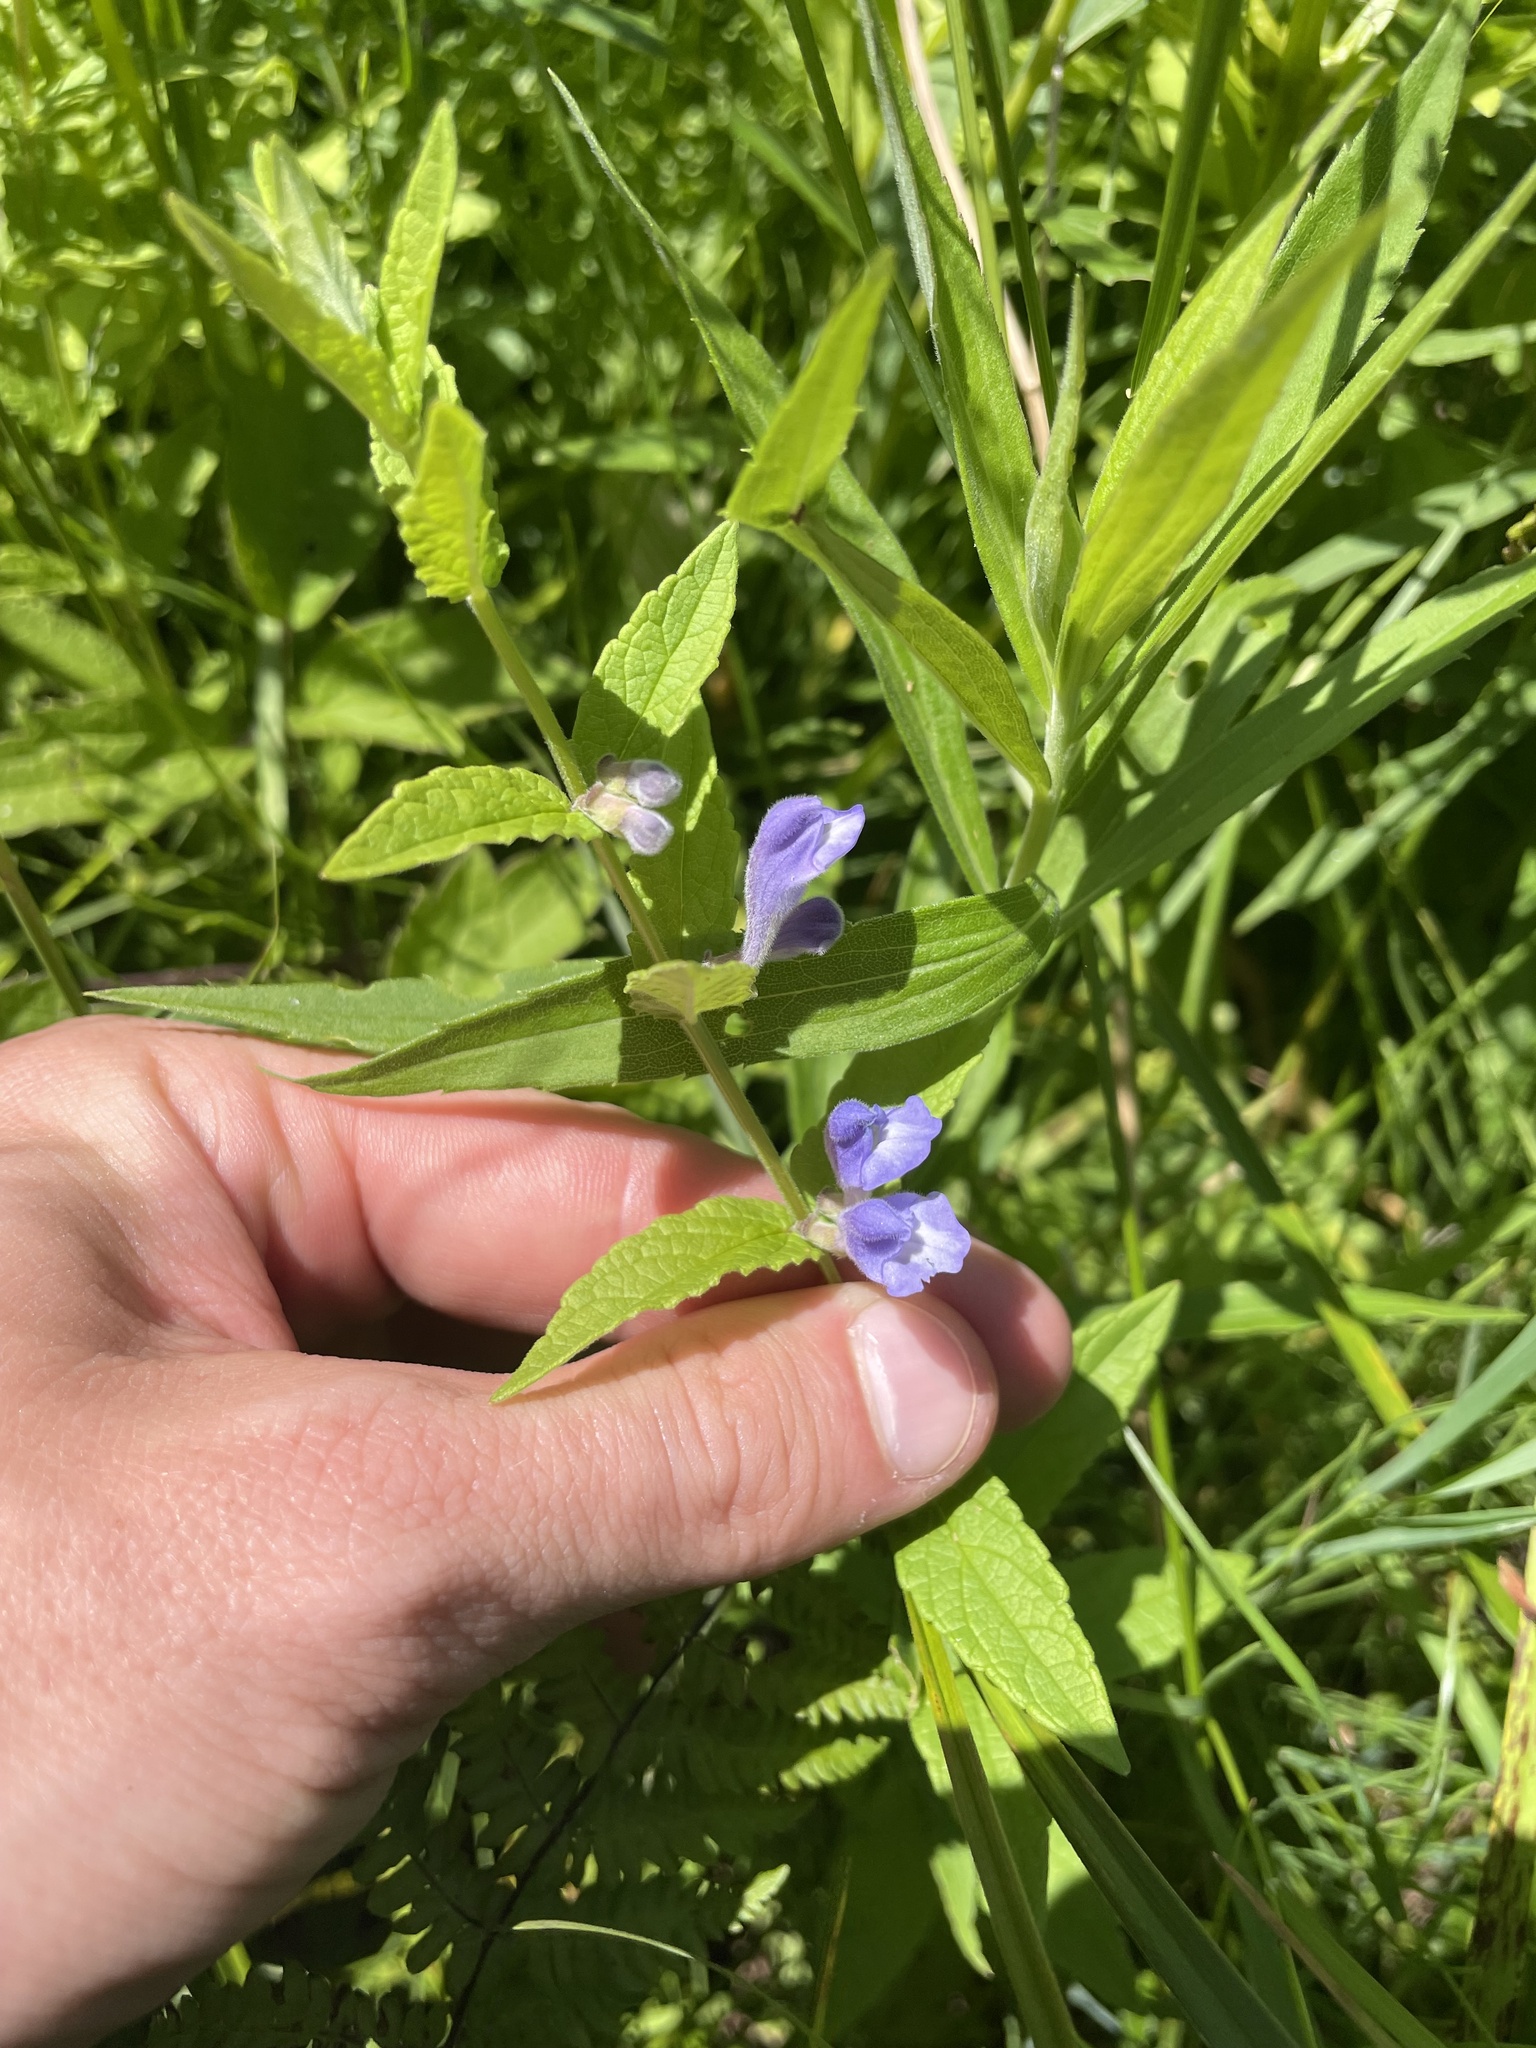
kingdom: Plantae
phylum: Tracheophyta
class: Magnoliopsida
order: Lamiales
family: Lamiaceae
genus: Scutellaria
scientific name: Scutellaria galericulata
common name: Skullcap
